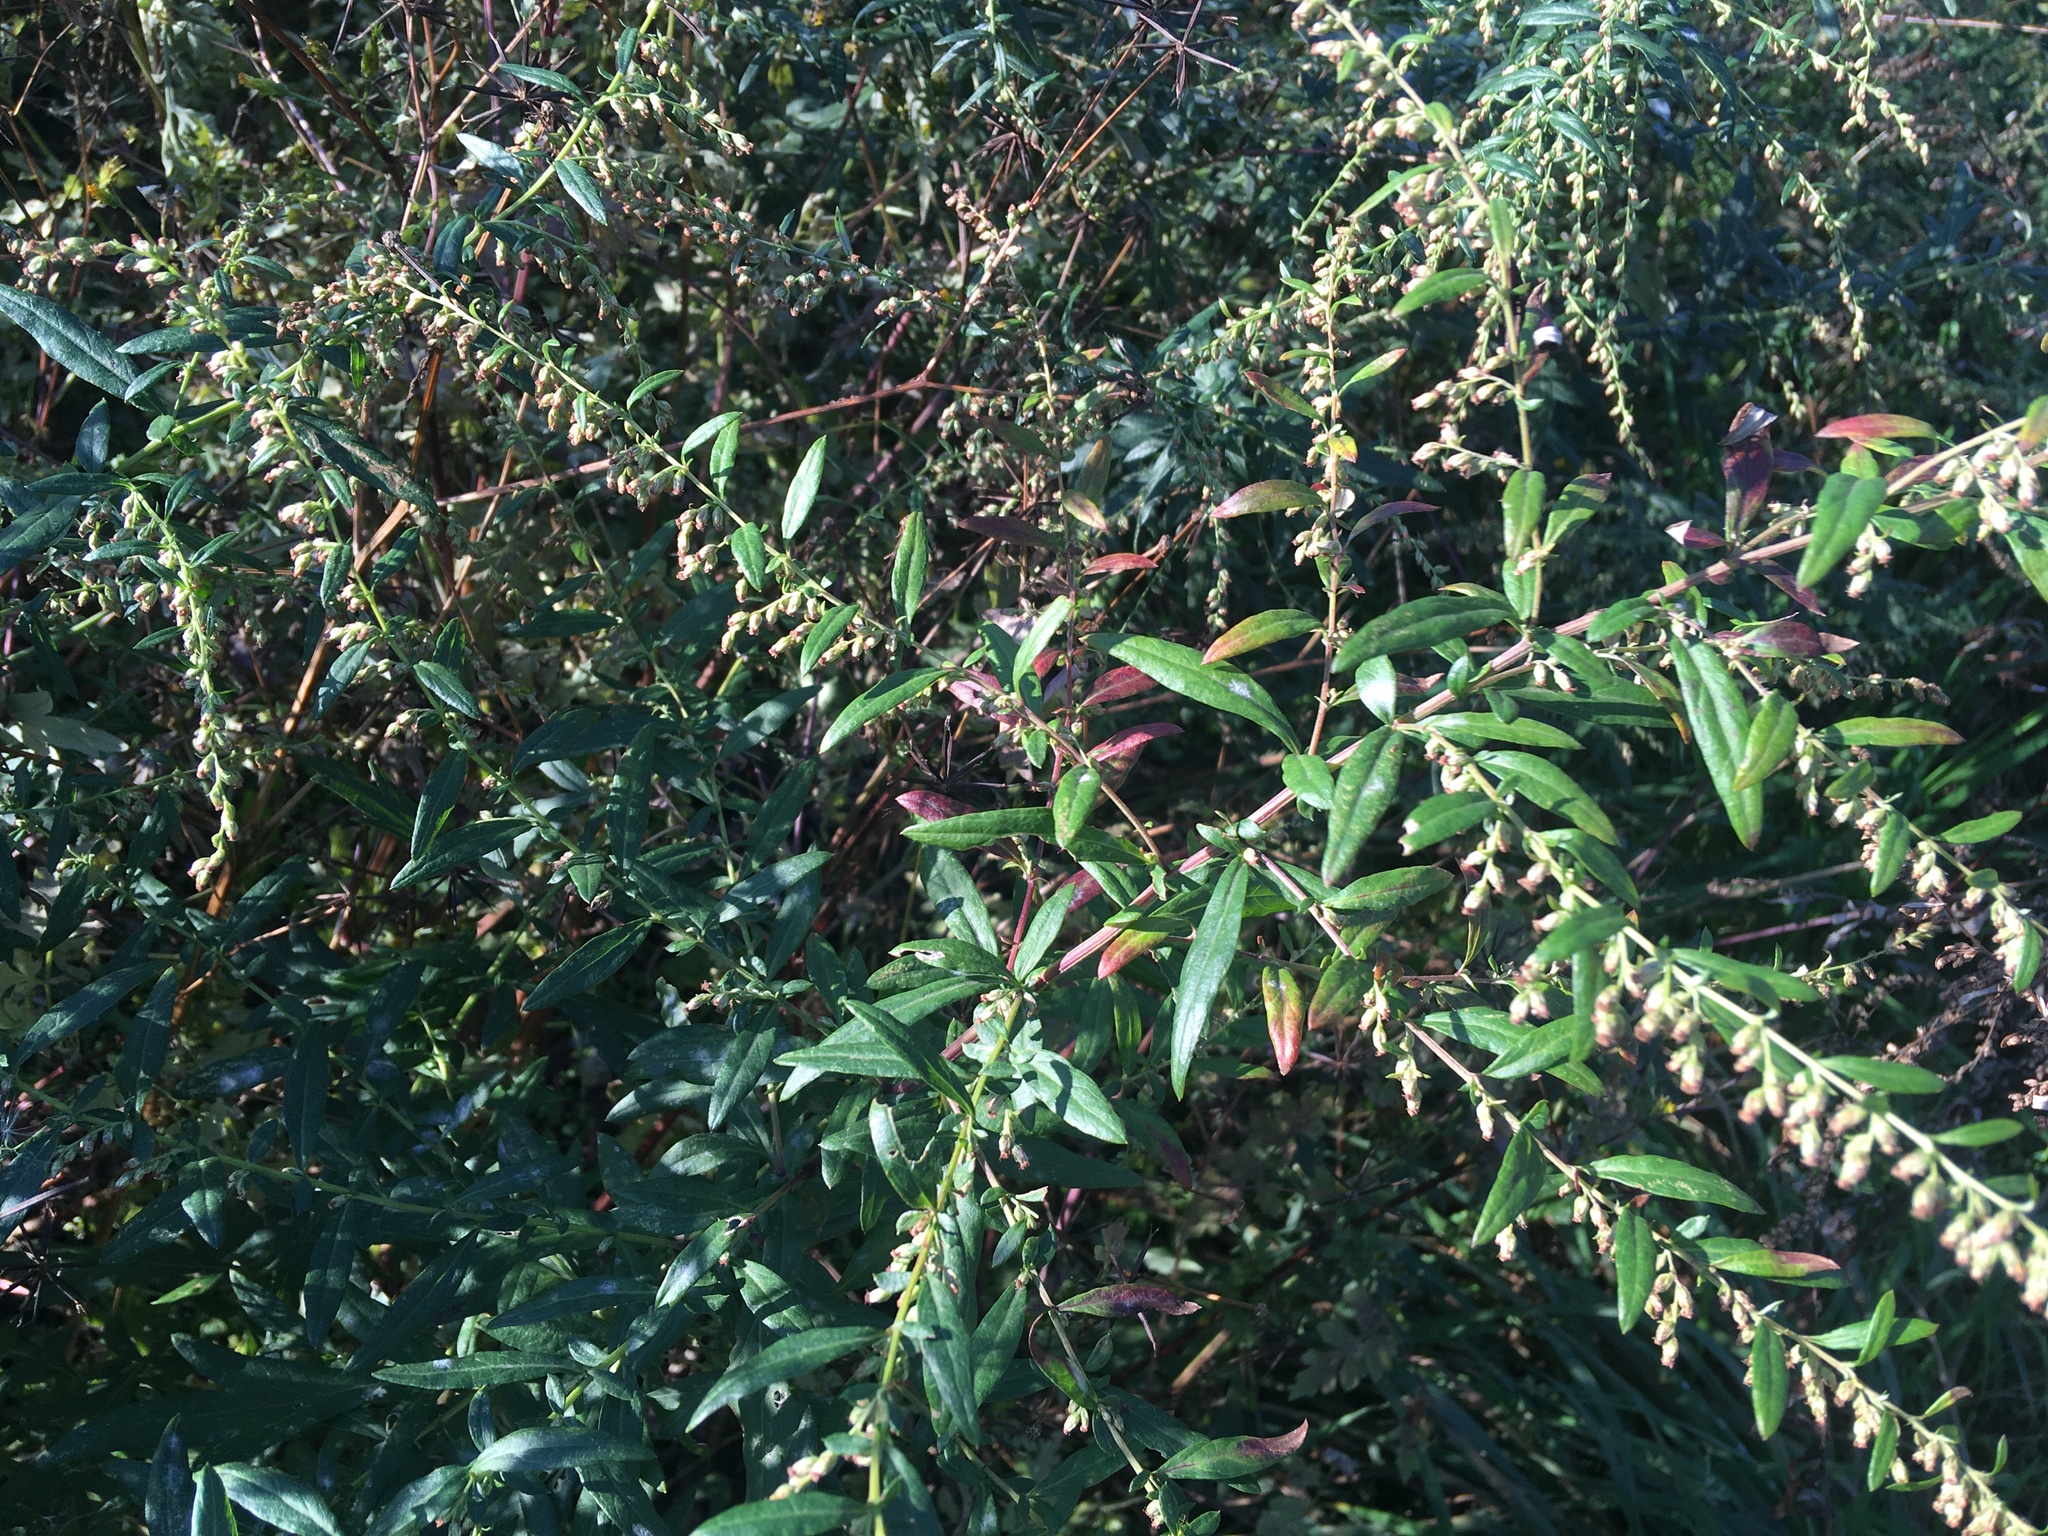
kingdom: Plantae
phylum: Tracheophyta
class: Magnoliopsida
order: Asterales
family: Asteraceae
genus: Artemisia
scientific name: Artemisia vulgaris
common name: Mugwort
